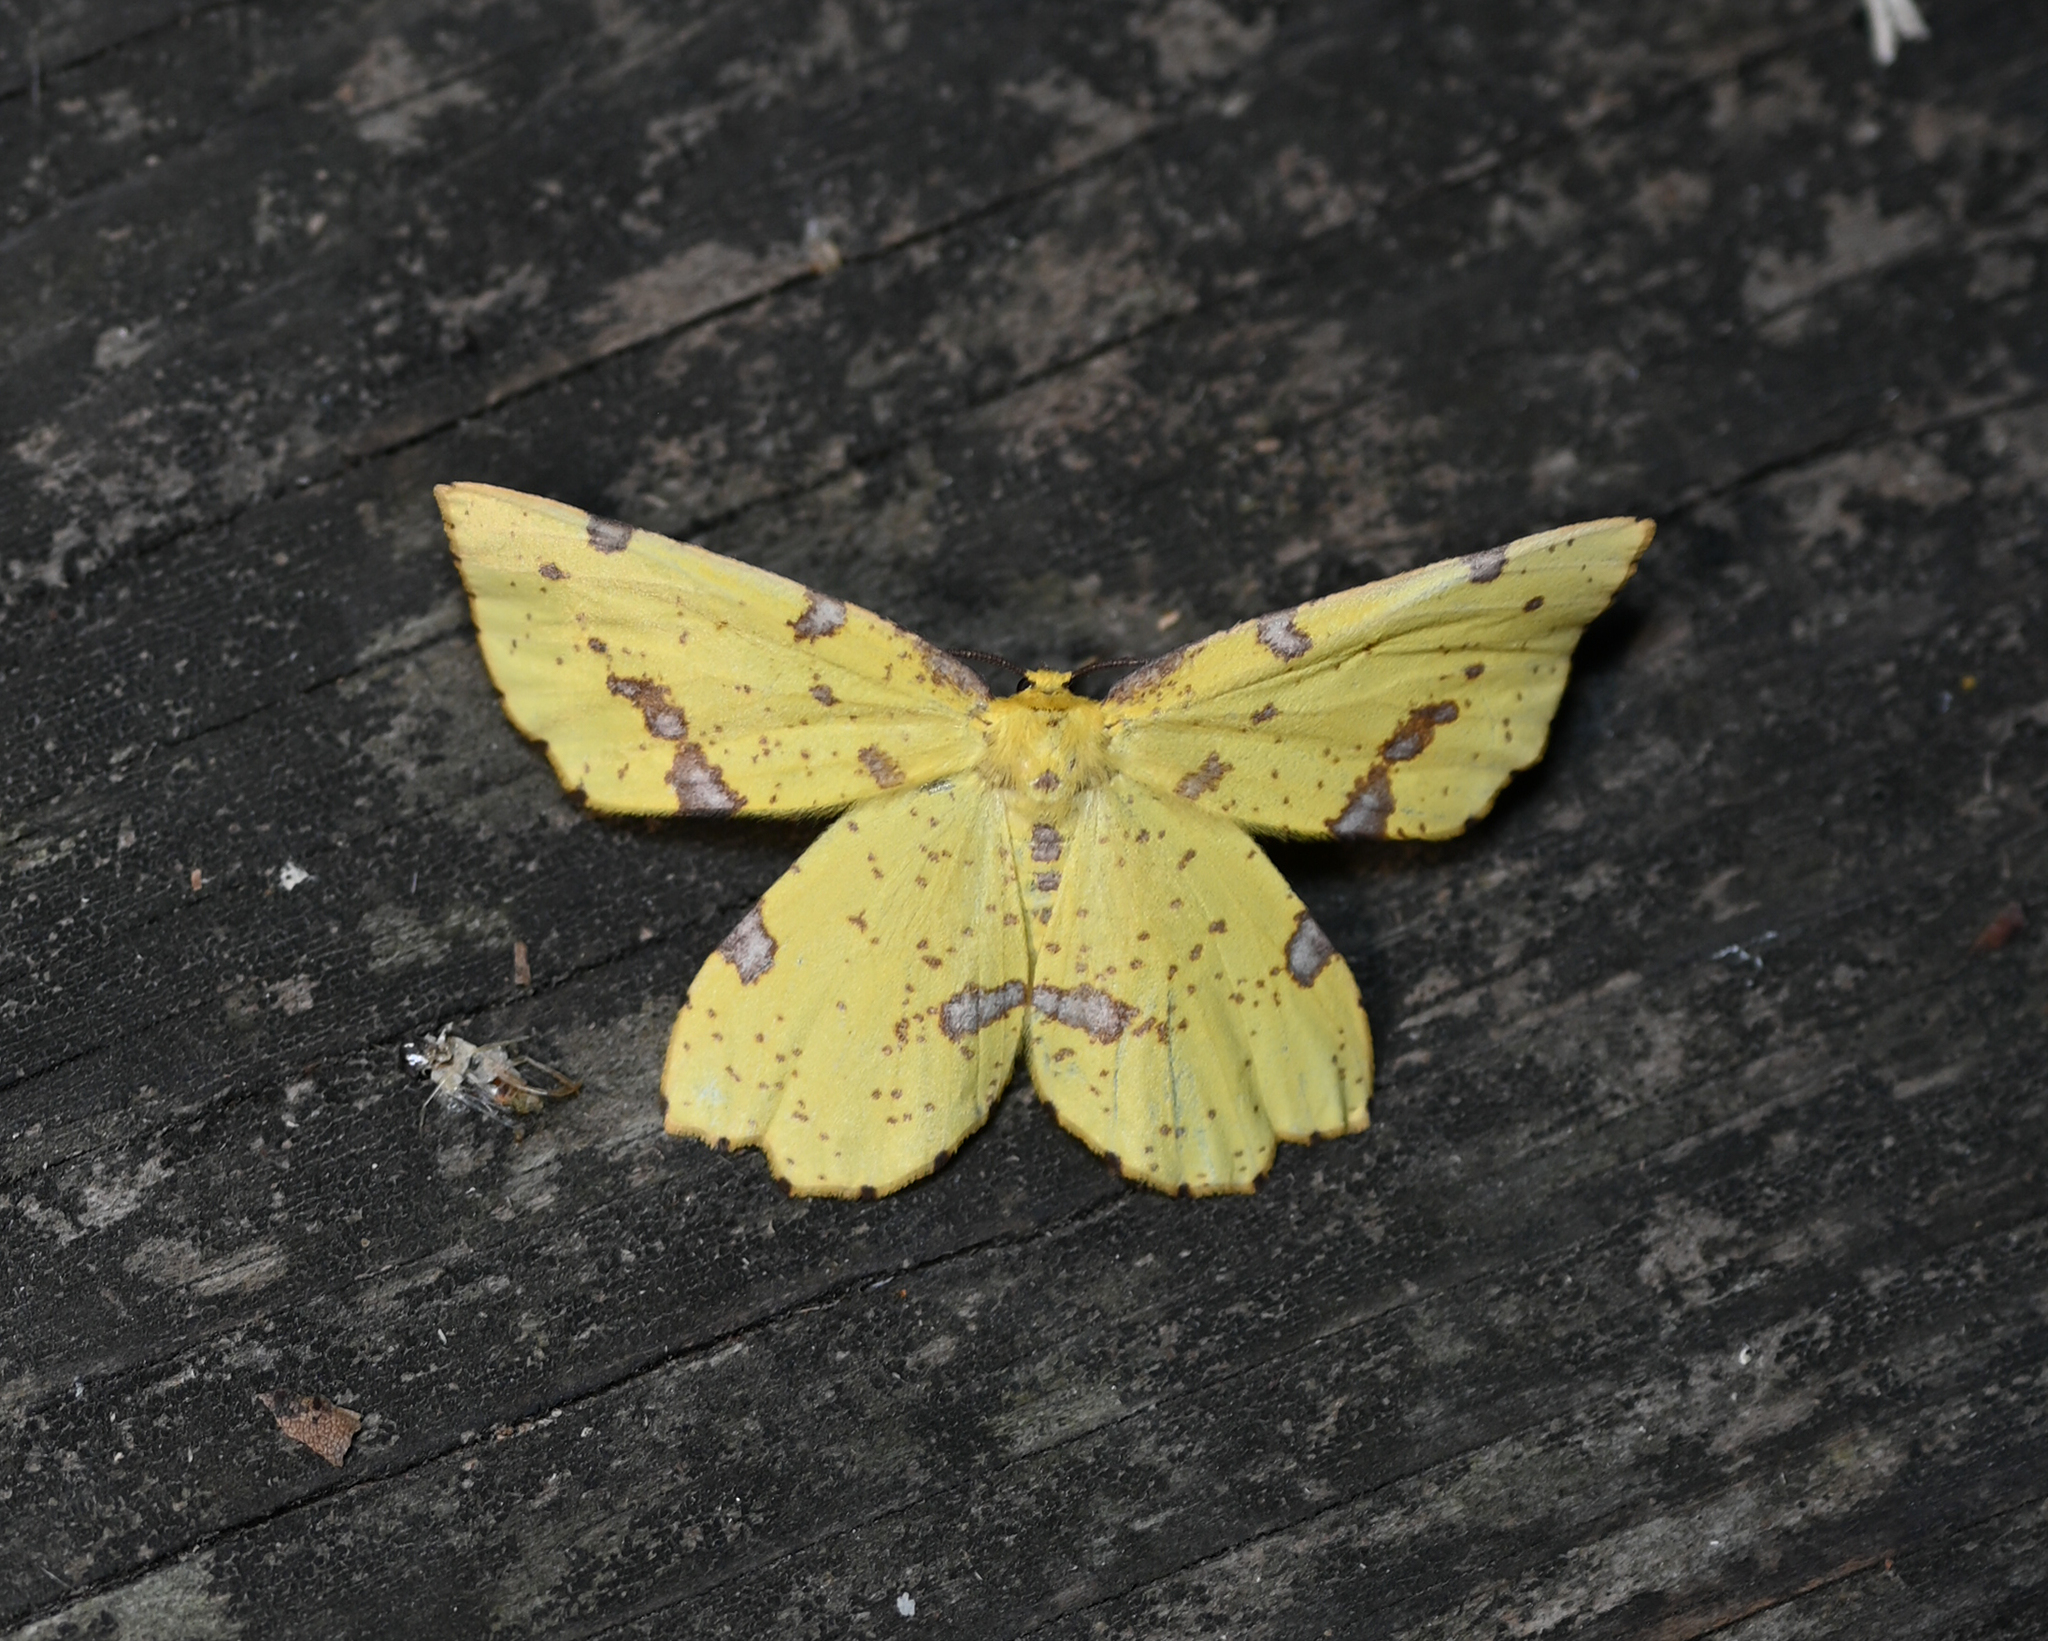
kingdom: Animalia
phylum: Arthropoda
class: Insecta
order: Lepidoptera
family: Geometridae
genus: Xanthotype
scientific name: Xanthotype
